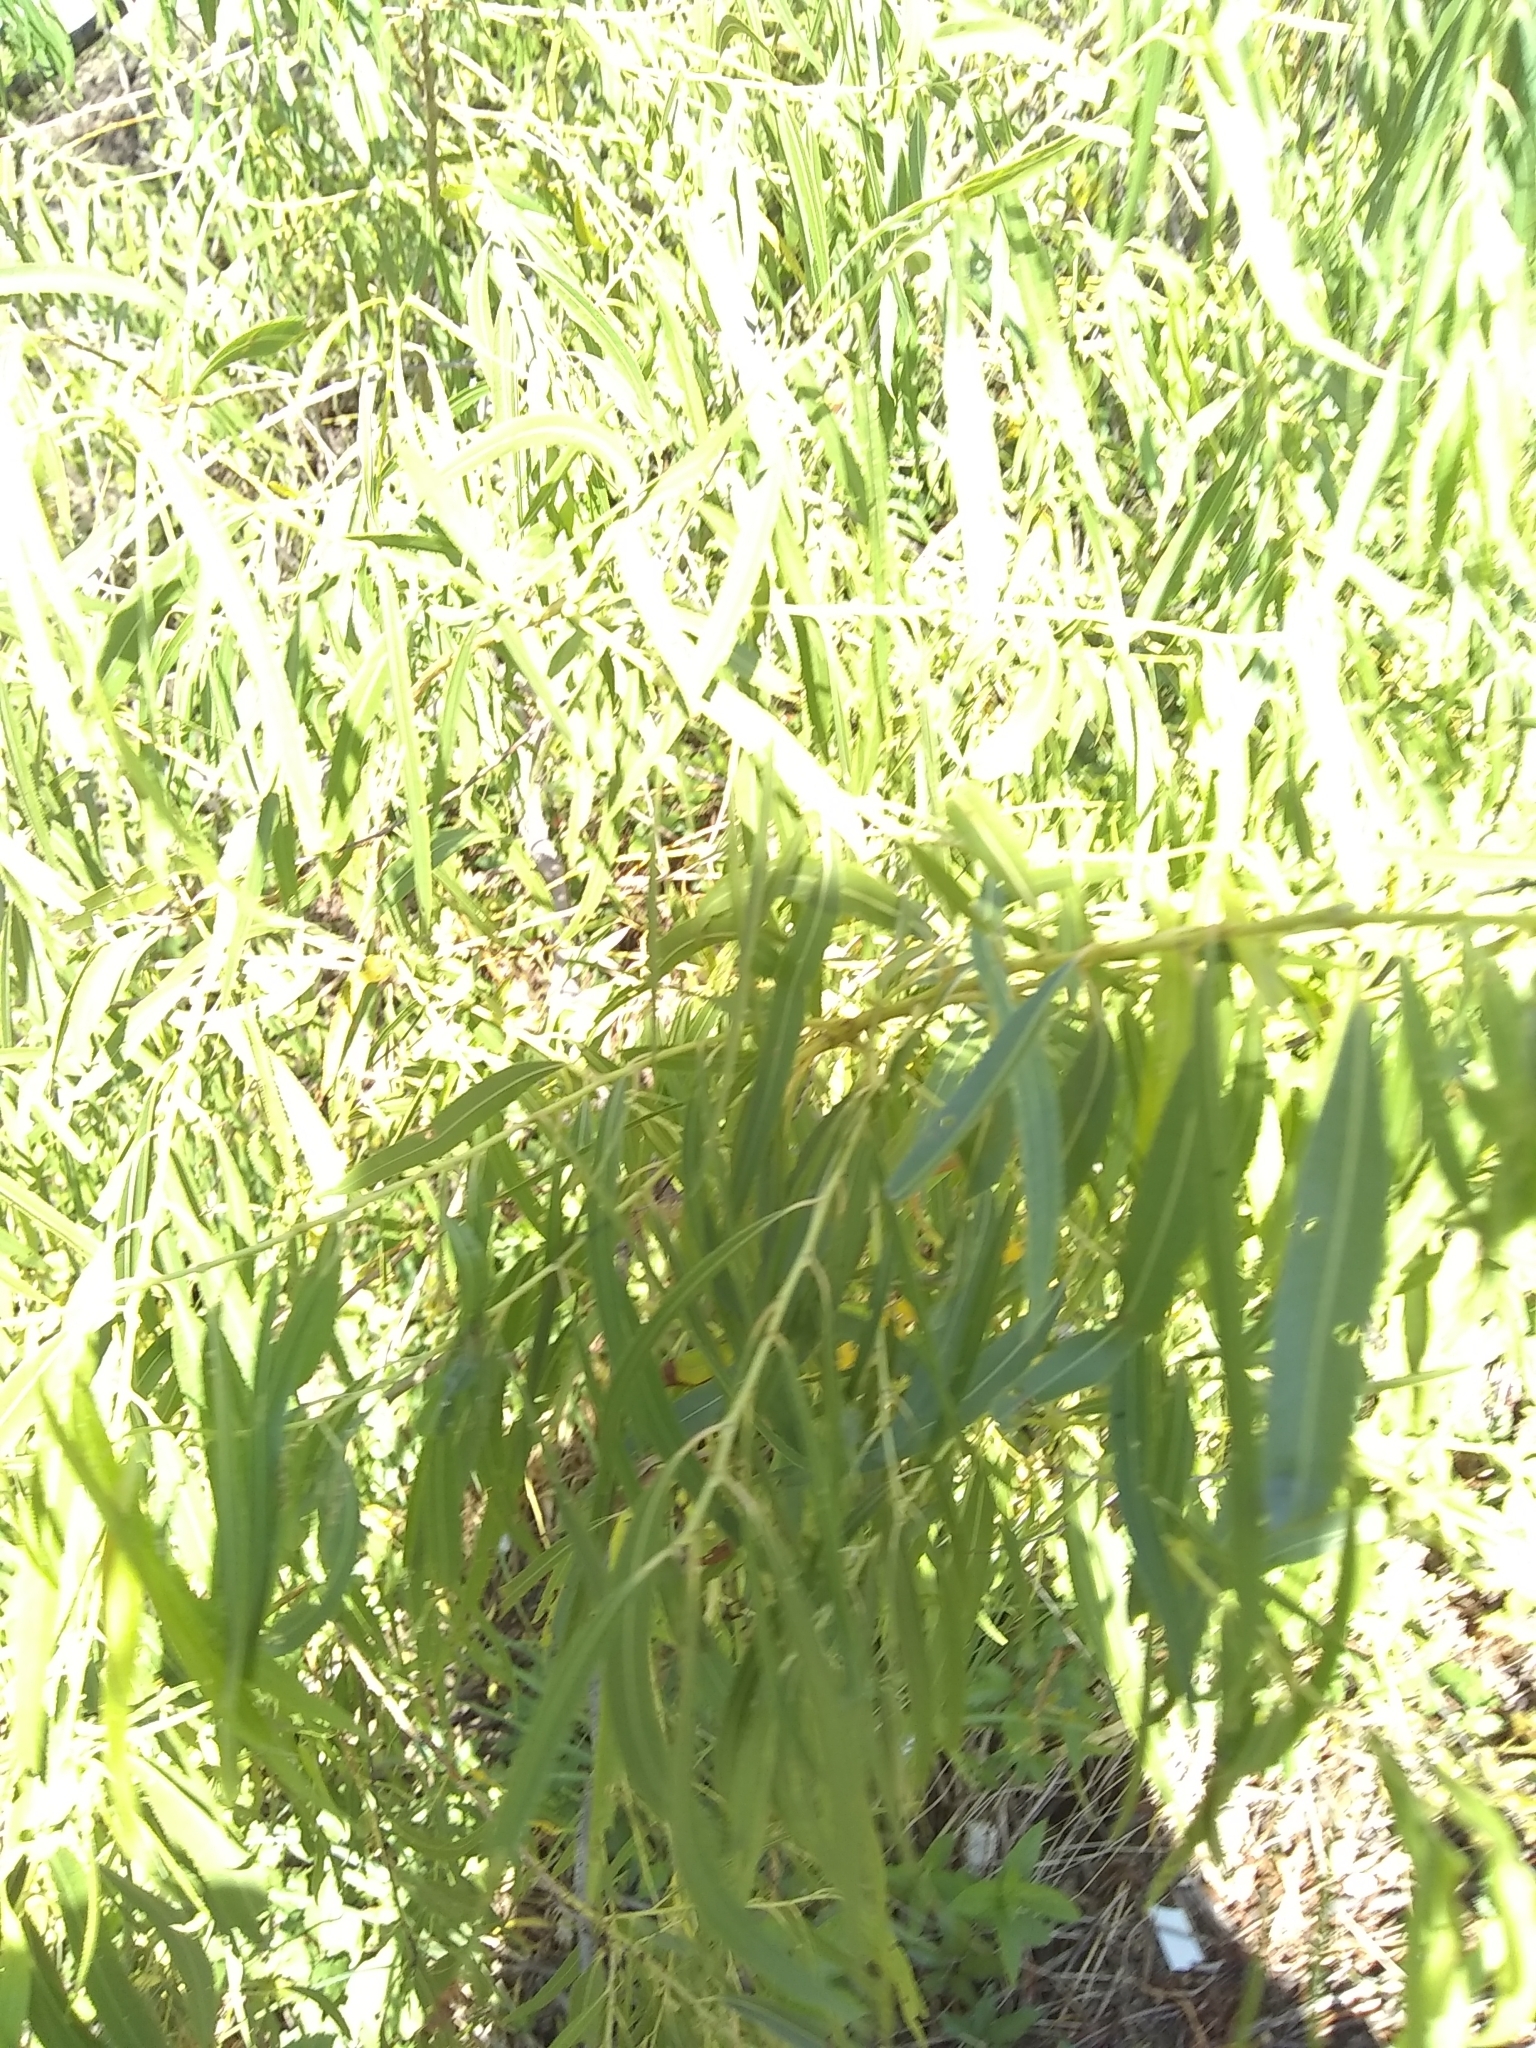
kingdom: Plantae
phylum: Tracheophyta
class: Magnoliopsida
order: Malpighiales
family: Salicaceae
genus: Salix
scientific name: Salix nigra
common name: Black willow
